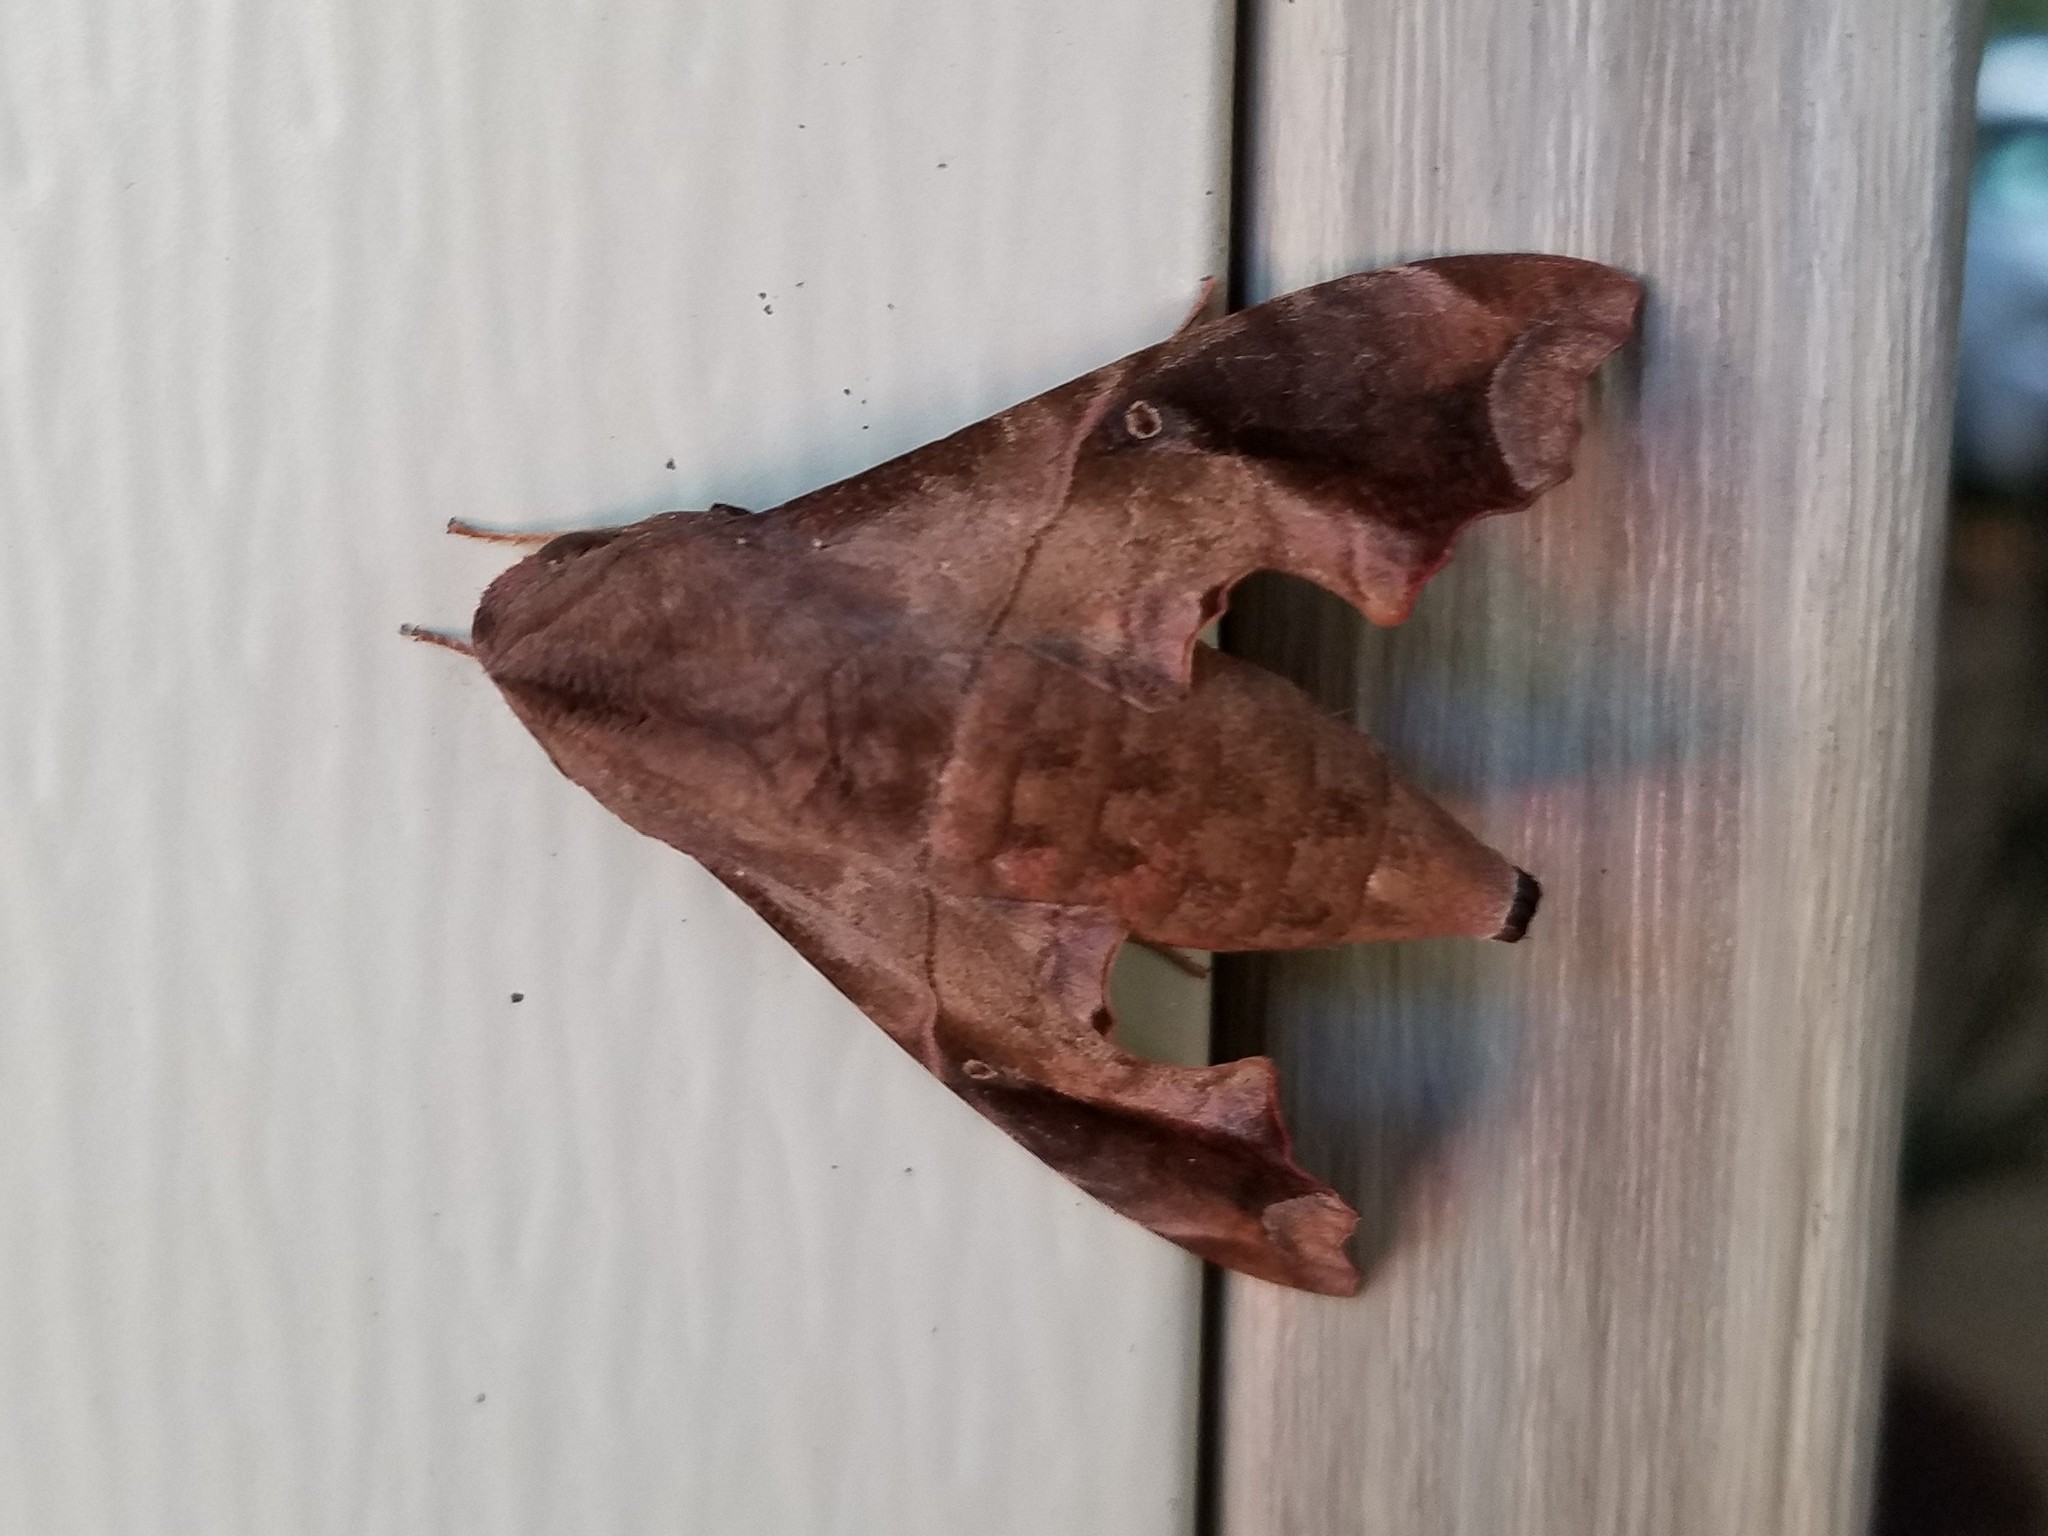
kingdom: Animalia
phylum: Arthropoda
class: Insecta
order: Lepidoptera
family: Sphingidae
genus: Enyo
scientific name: Enyo lugubris
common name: Mournful sphinx
